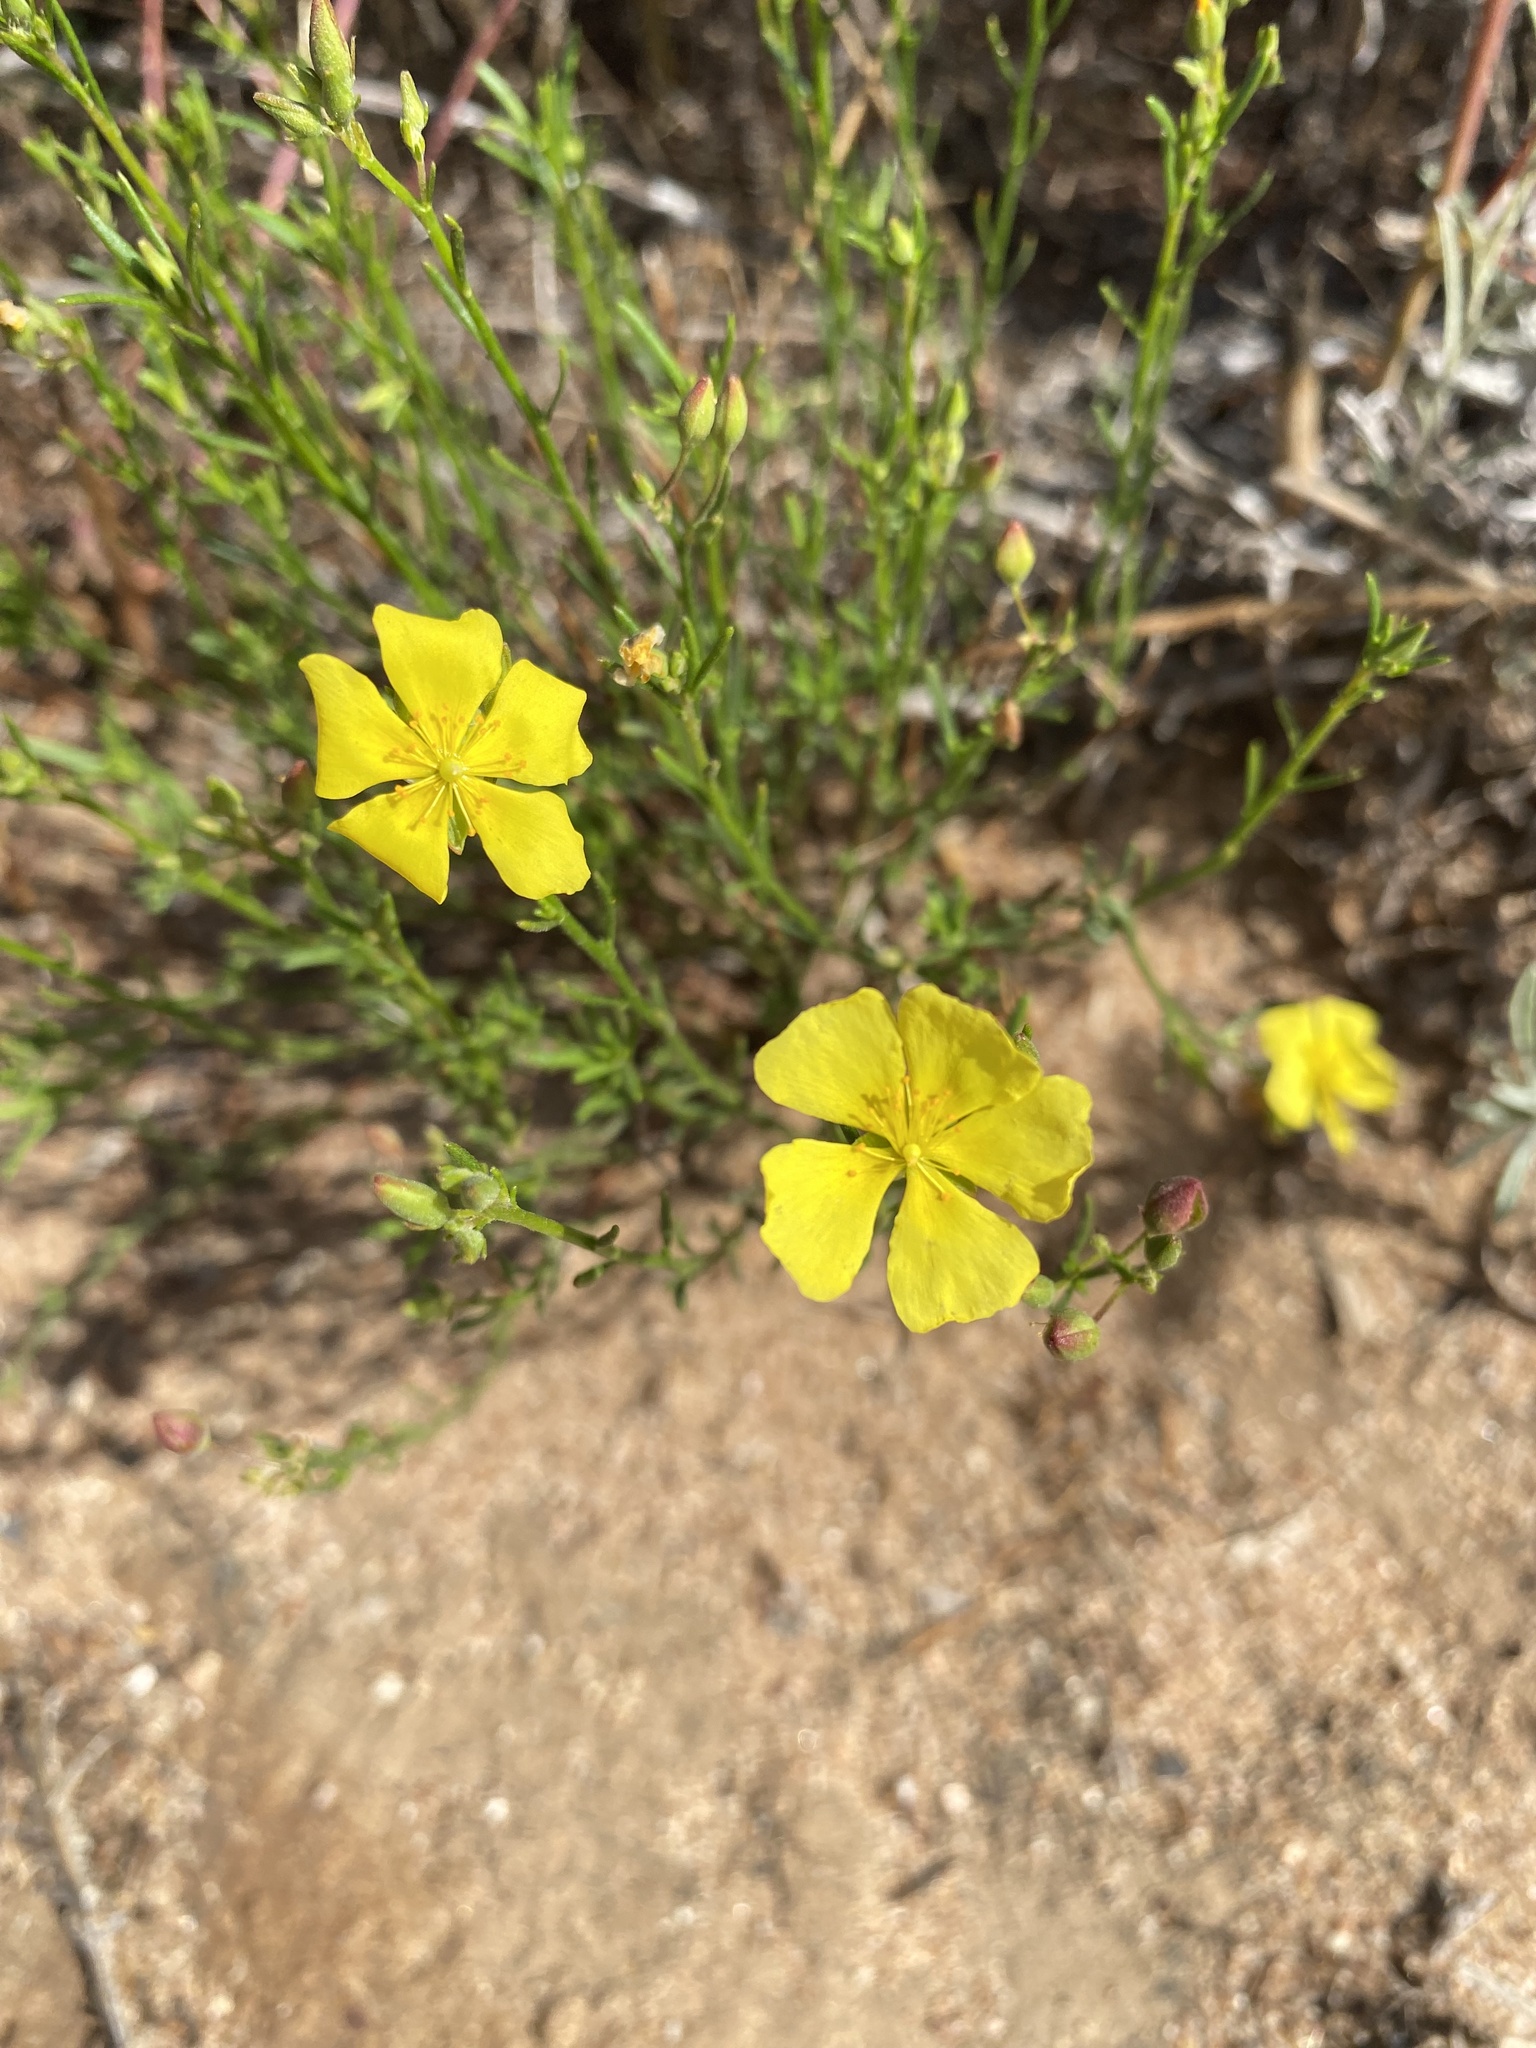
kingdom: Plantae
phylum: Tracheophyta
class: Magnoliopsida
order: Malvales
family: Cistaceae
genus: Crocanthemum
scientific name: Crocanthemum scoparium
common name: Broom-rose
